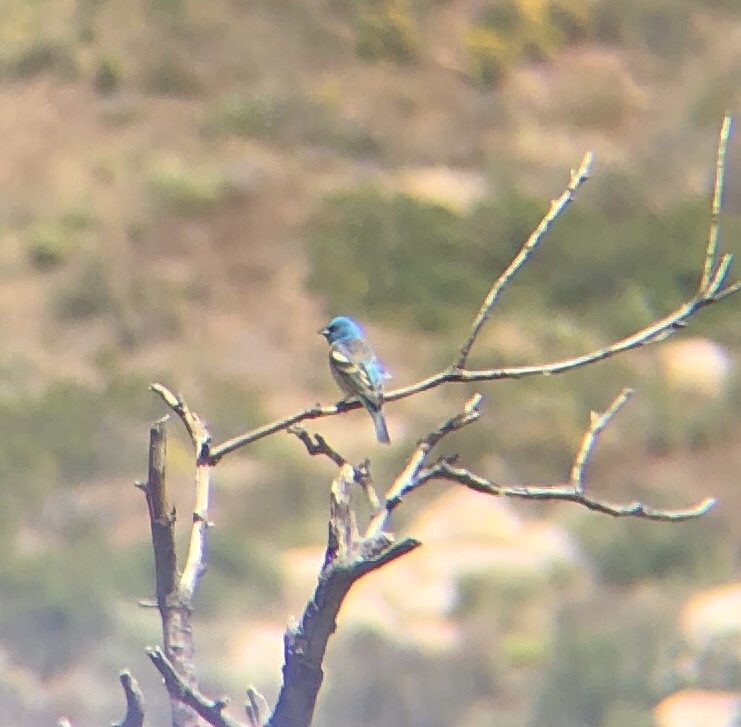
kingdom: Animalia
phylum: Chordata
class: Aves
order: Passeriformes
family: Cardinalidae
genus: Passerina
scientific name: Passerina amoena
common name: Lazuli bunting
